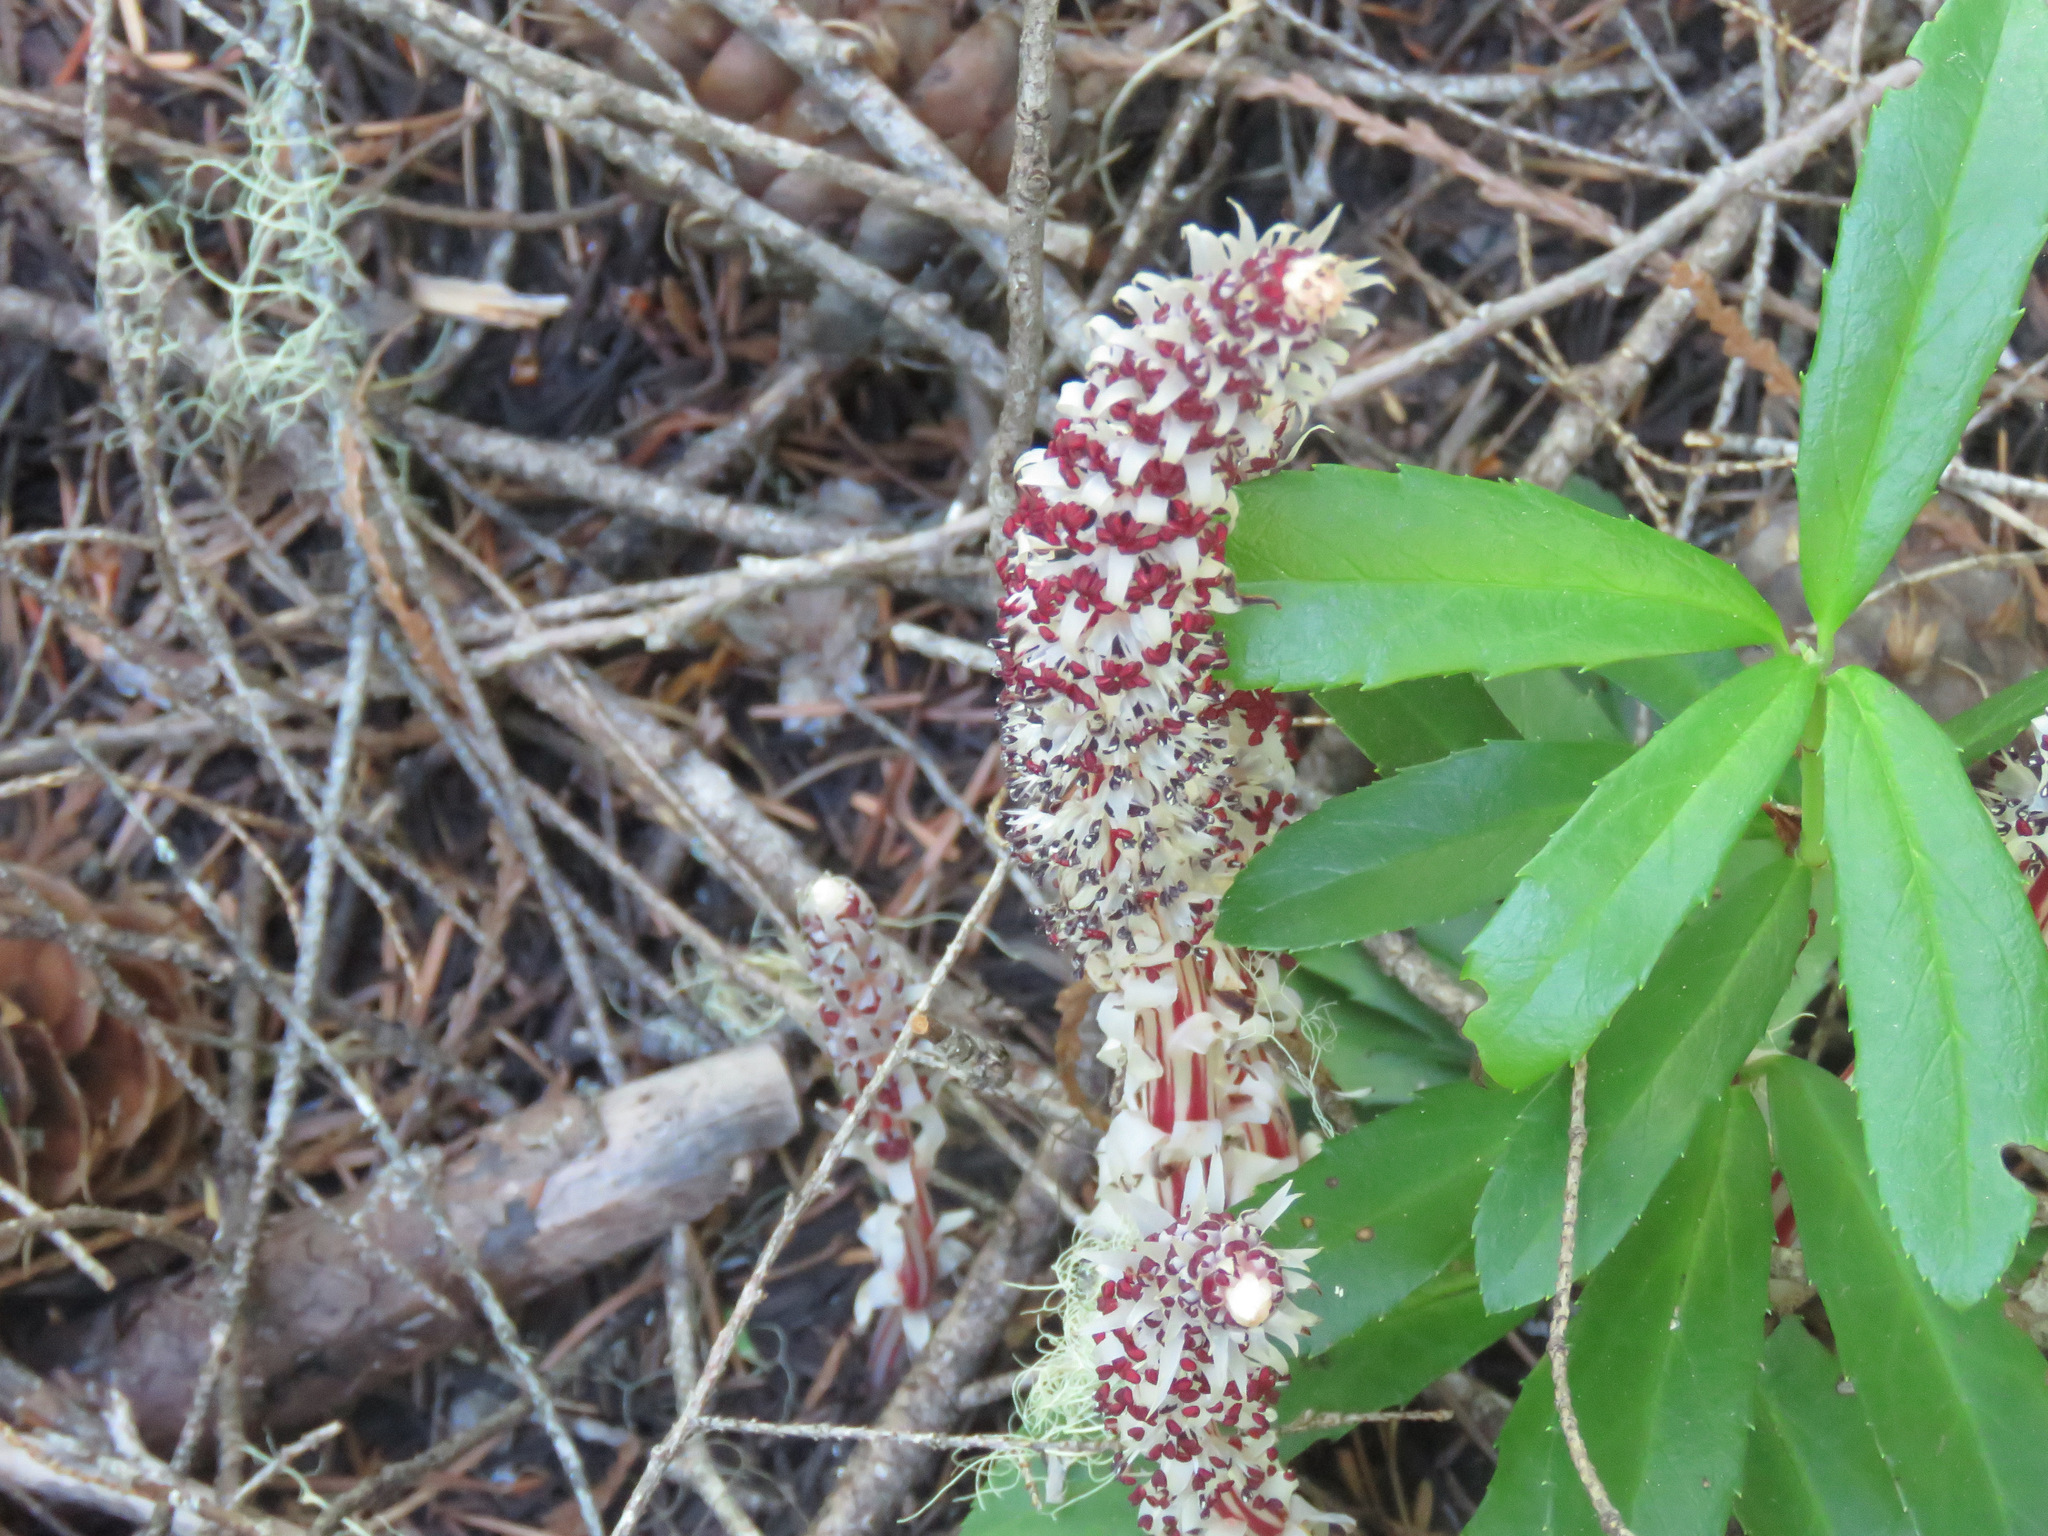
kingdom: Plantae
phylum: Tracheophyta
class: Magnoliopsida
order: Ericales
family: Ericaceae
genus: Allotropa
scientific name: Allotropa virgata
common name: Candy-striped allotropa
